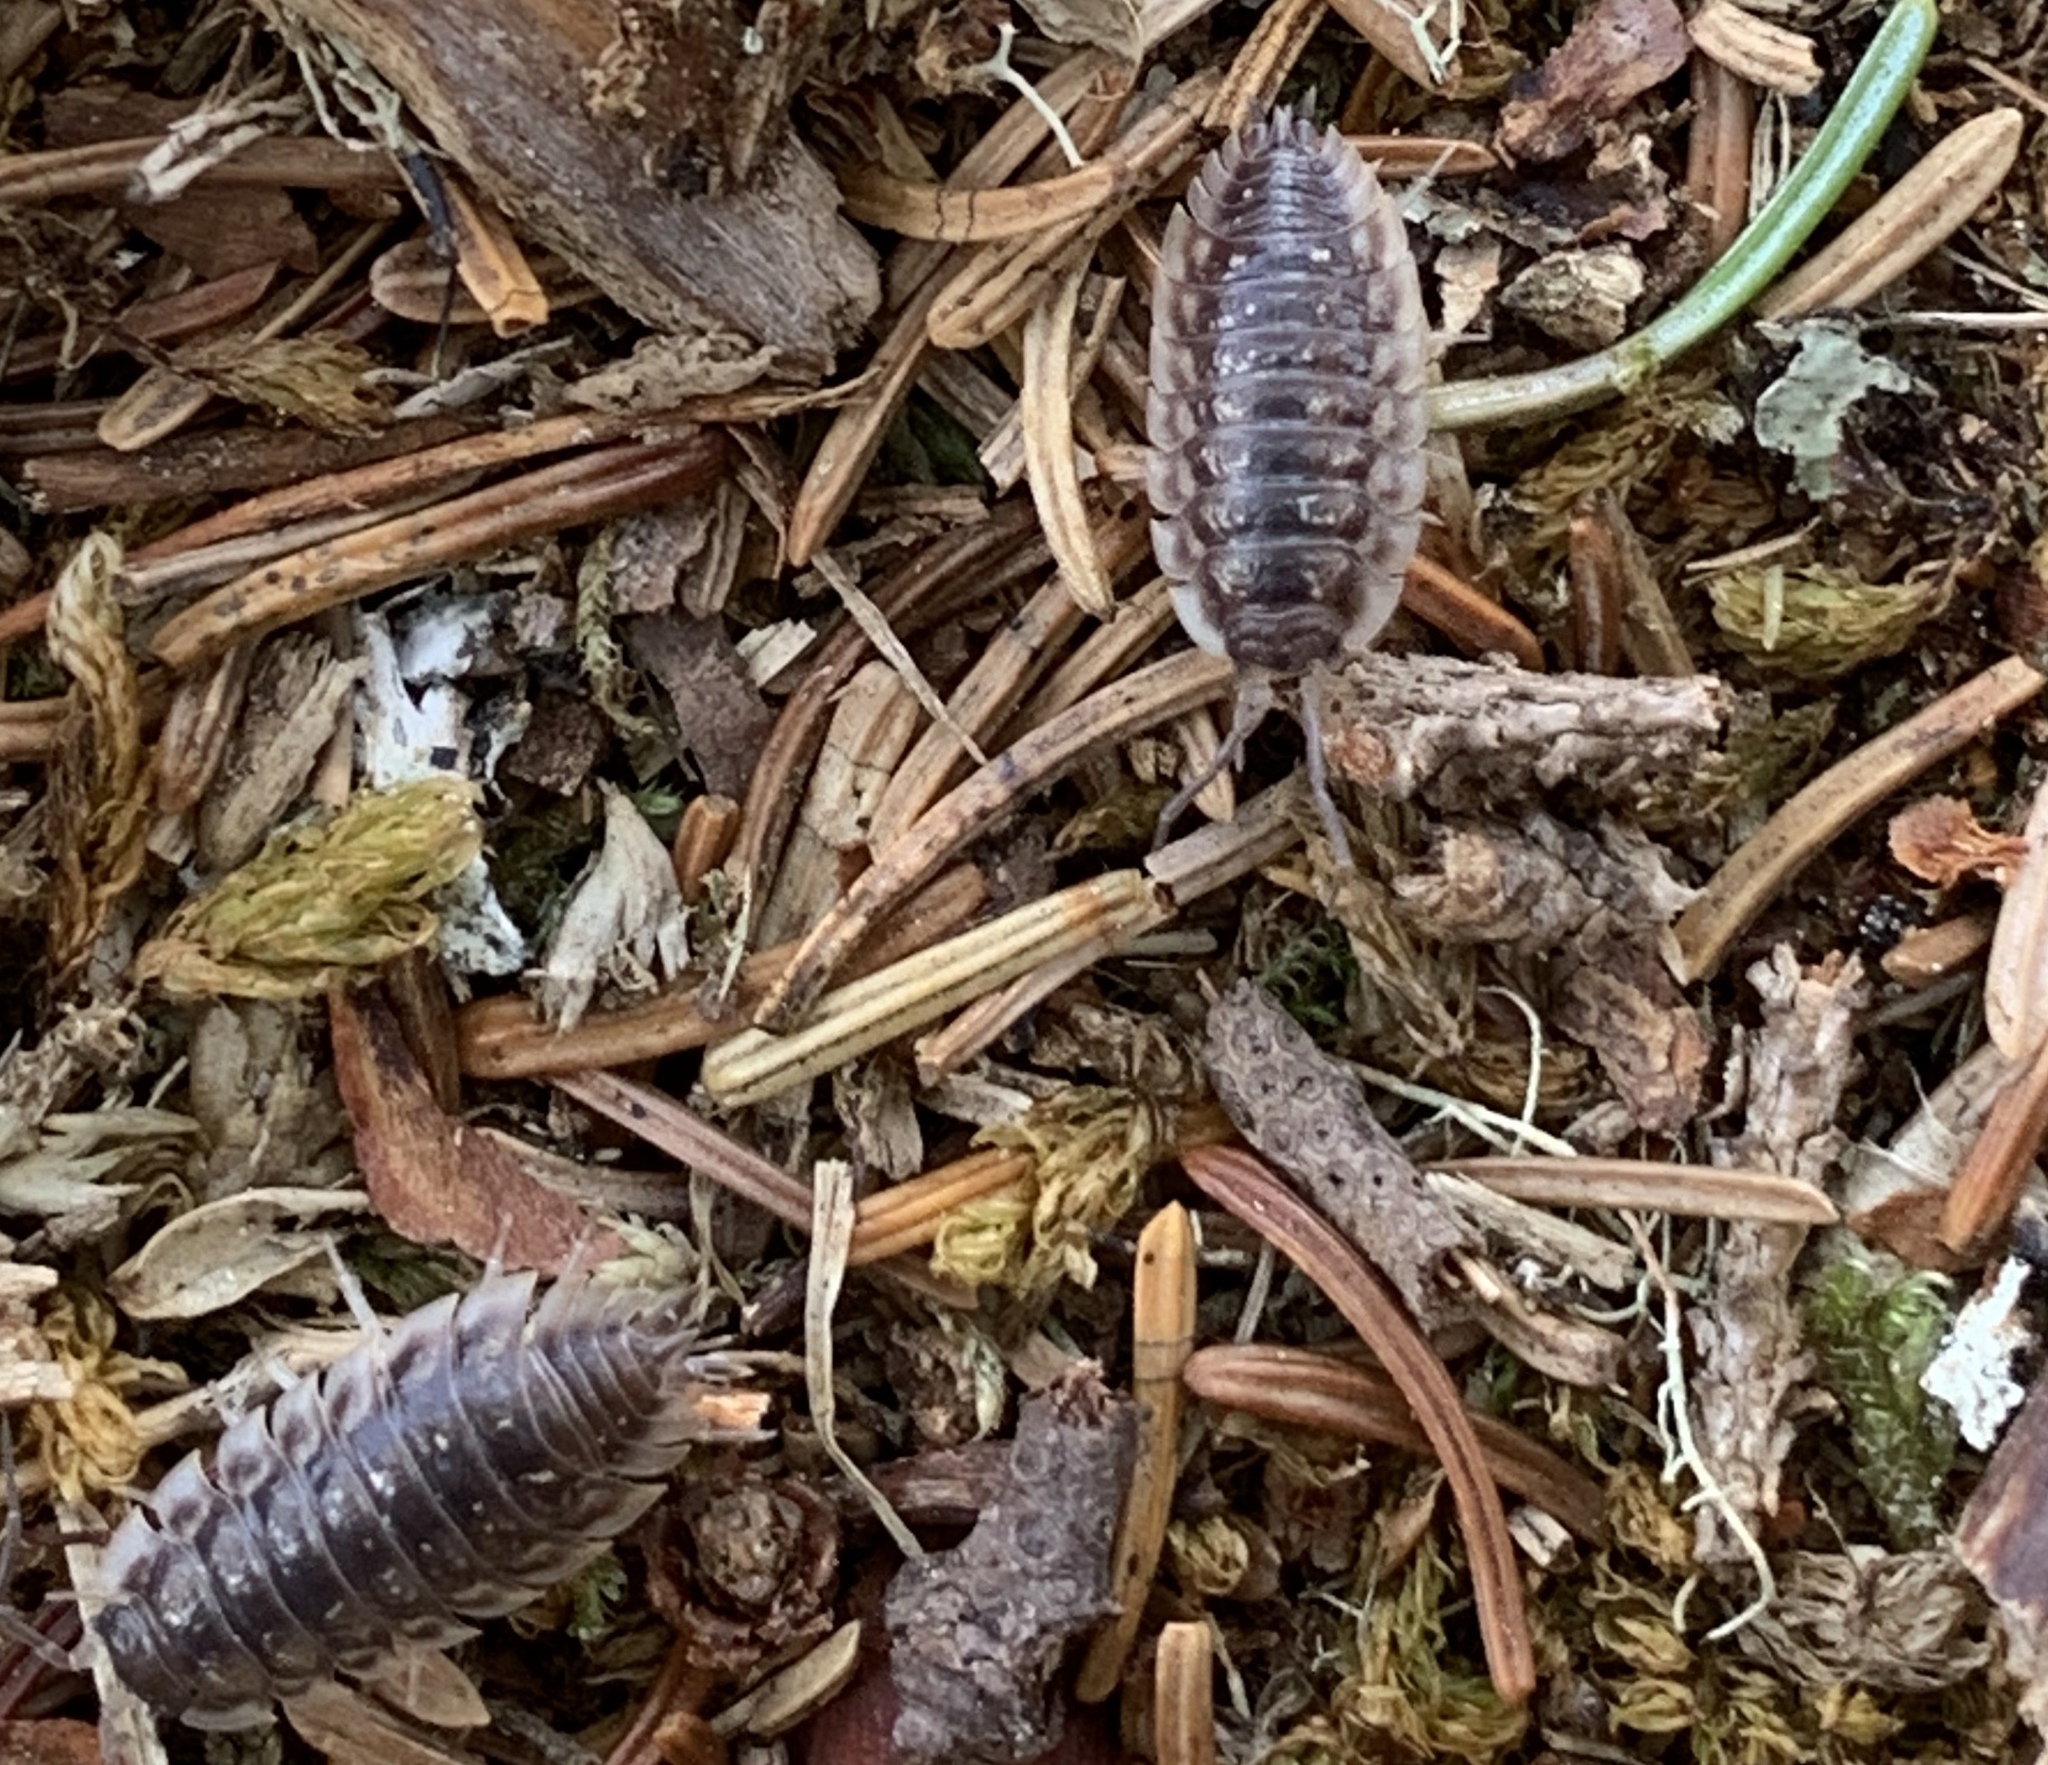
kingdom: Animalia
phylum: Arthropoda
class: Malacostraca
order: Isopoda
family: Oniscidae
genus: Oniscus
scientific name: Oniscus asellus
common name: Common shiny woodlouse
